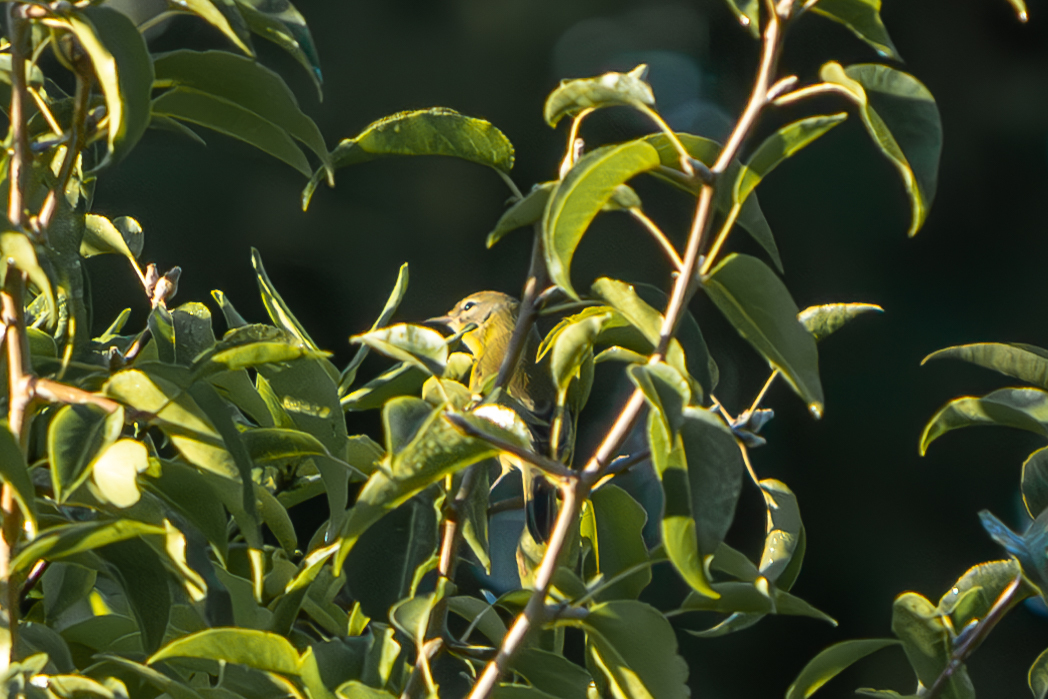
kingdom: Animalia
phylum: Chordata
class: Aves
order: Passeriformes
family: Parulidae
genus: Setophaga
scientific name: Setophaga discolor
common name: Prairie warbler
